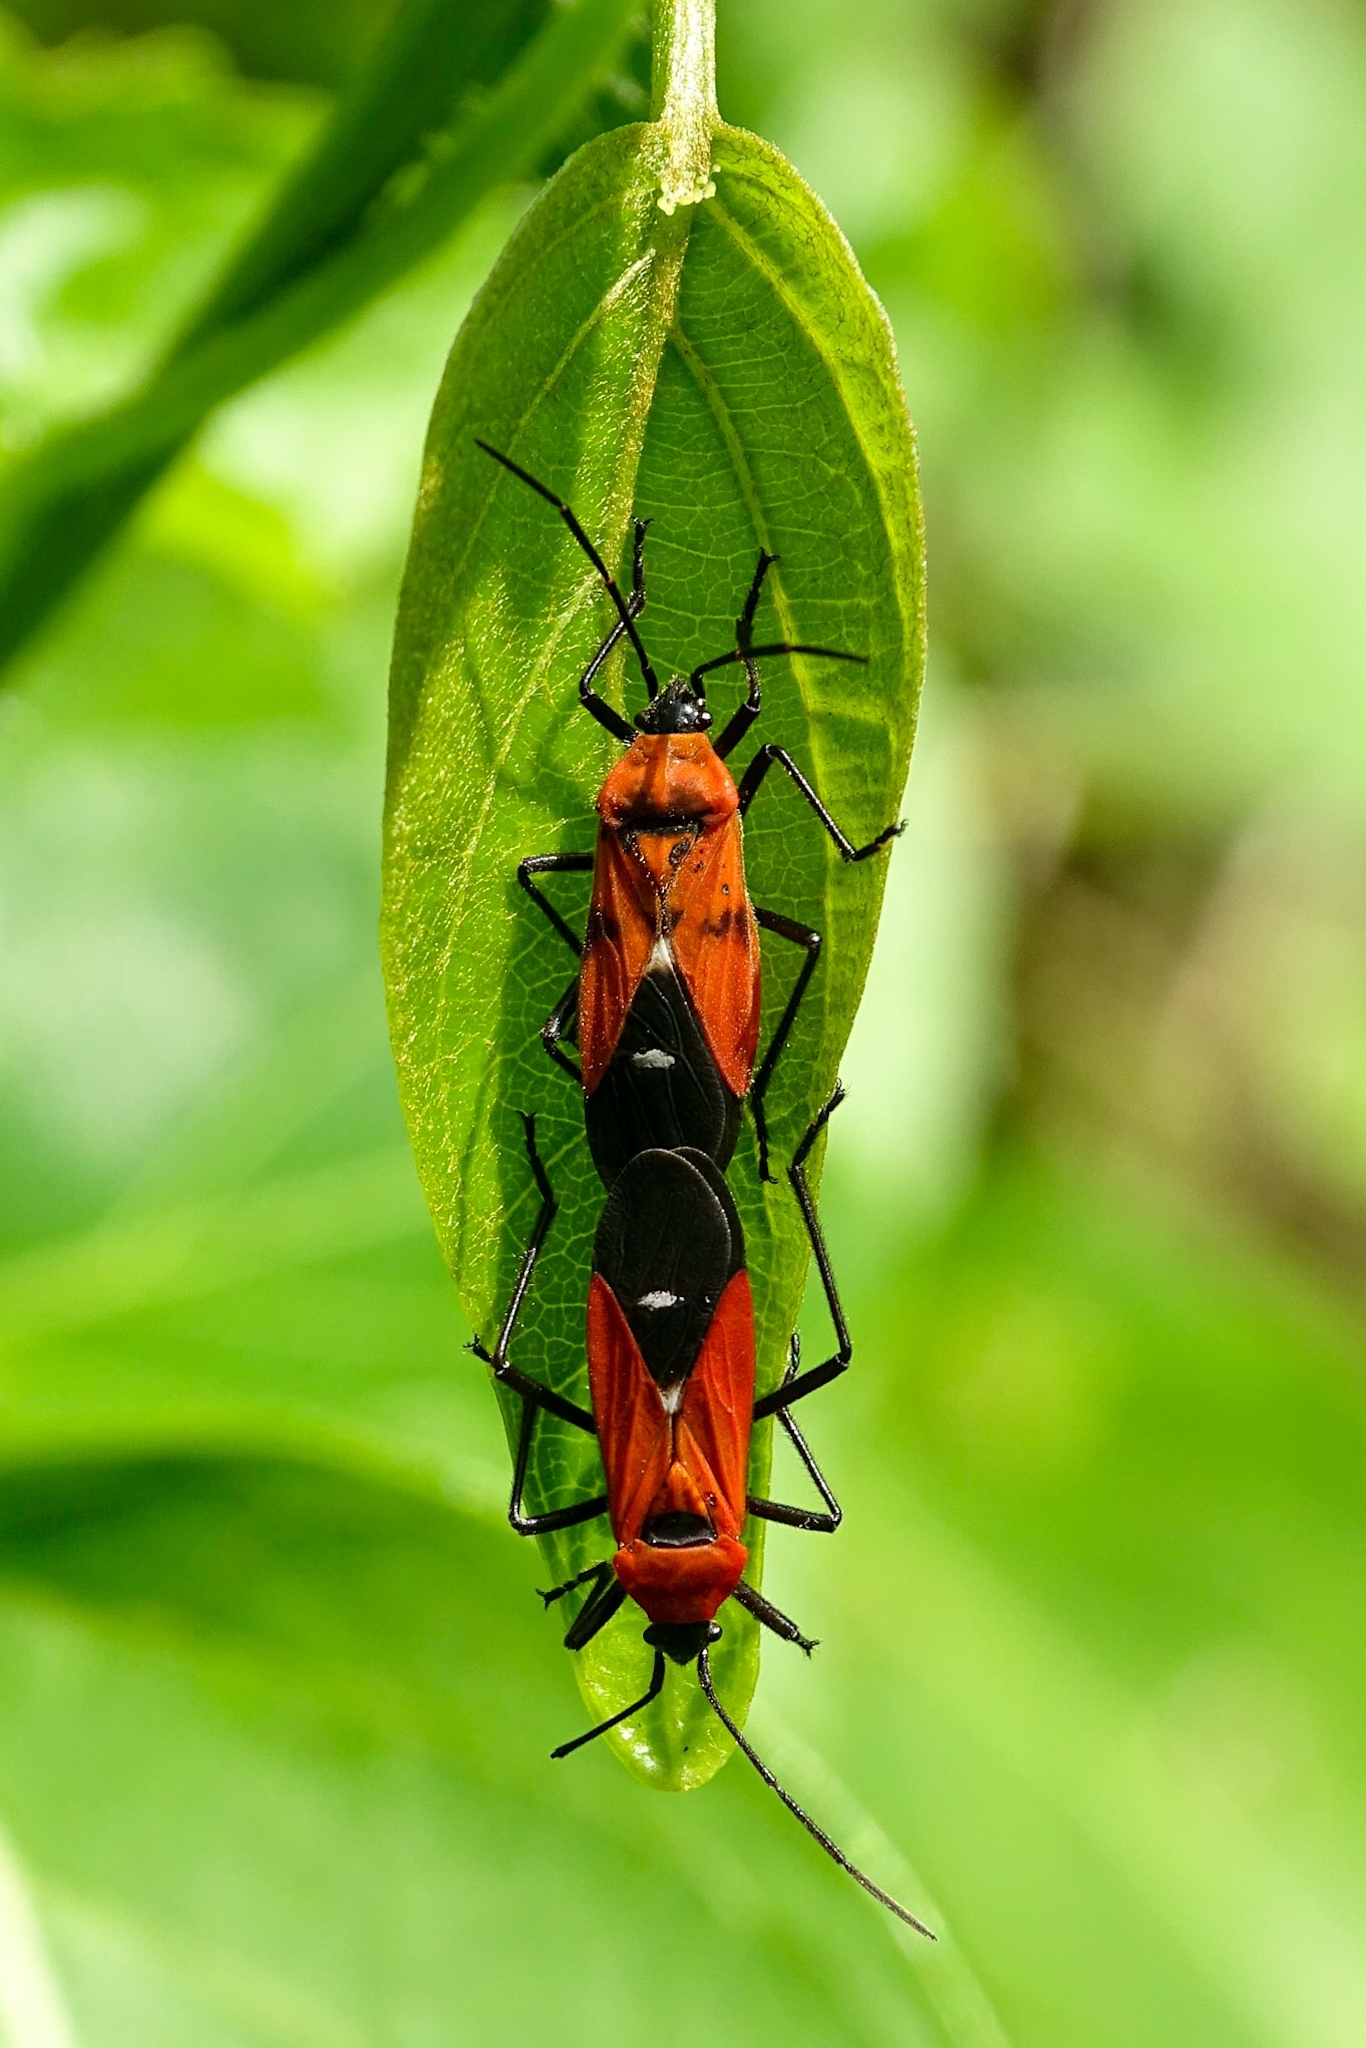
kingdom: Animalia
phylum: Arthropoda
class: Insecta
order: Hemiptera
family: Lygaeidae
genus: Oncopeltus
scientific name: Oncopeltus nigriceps
